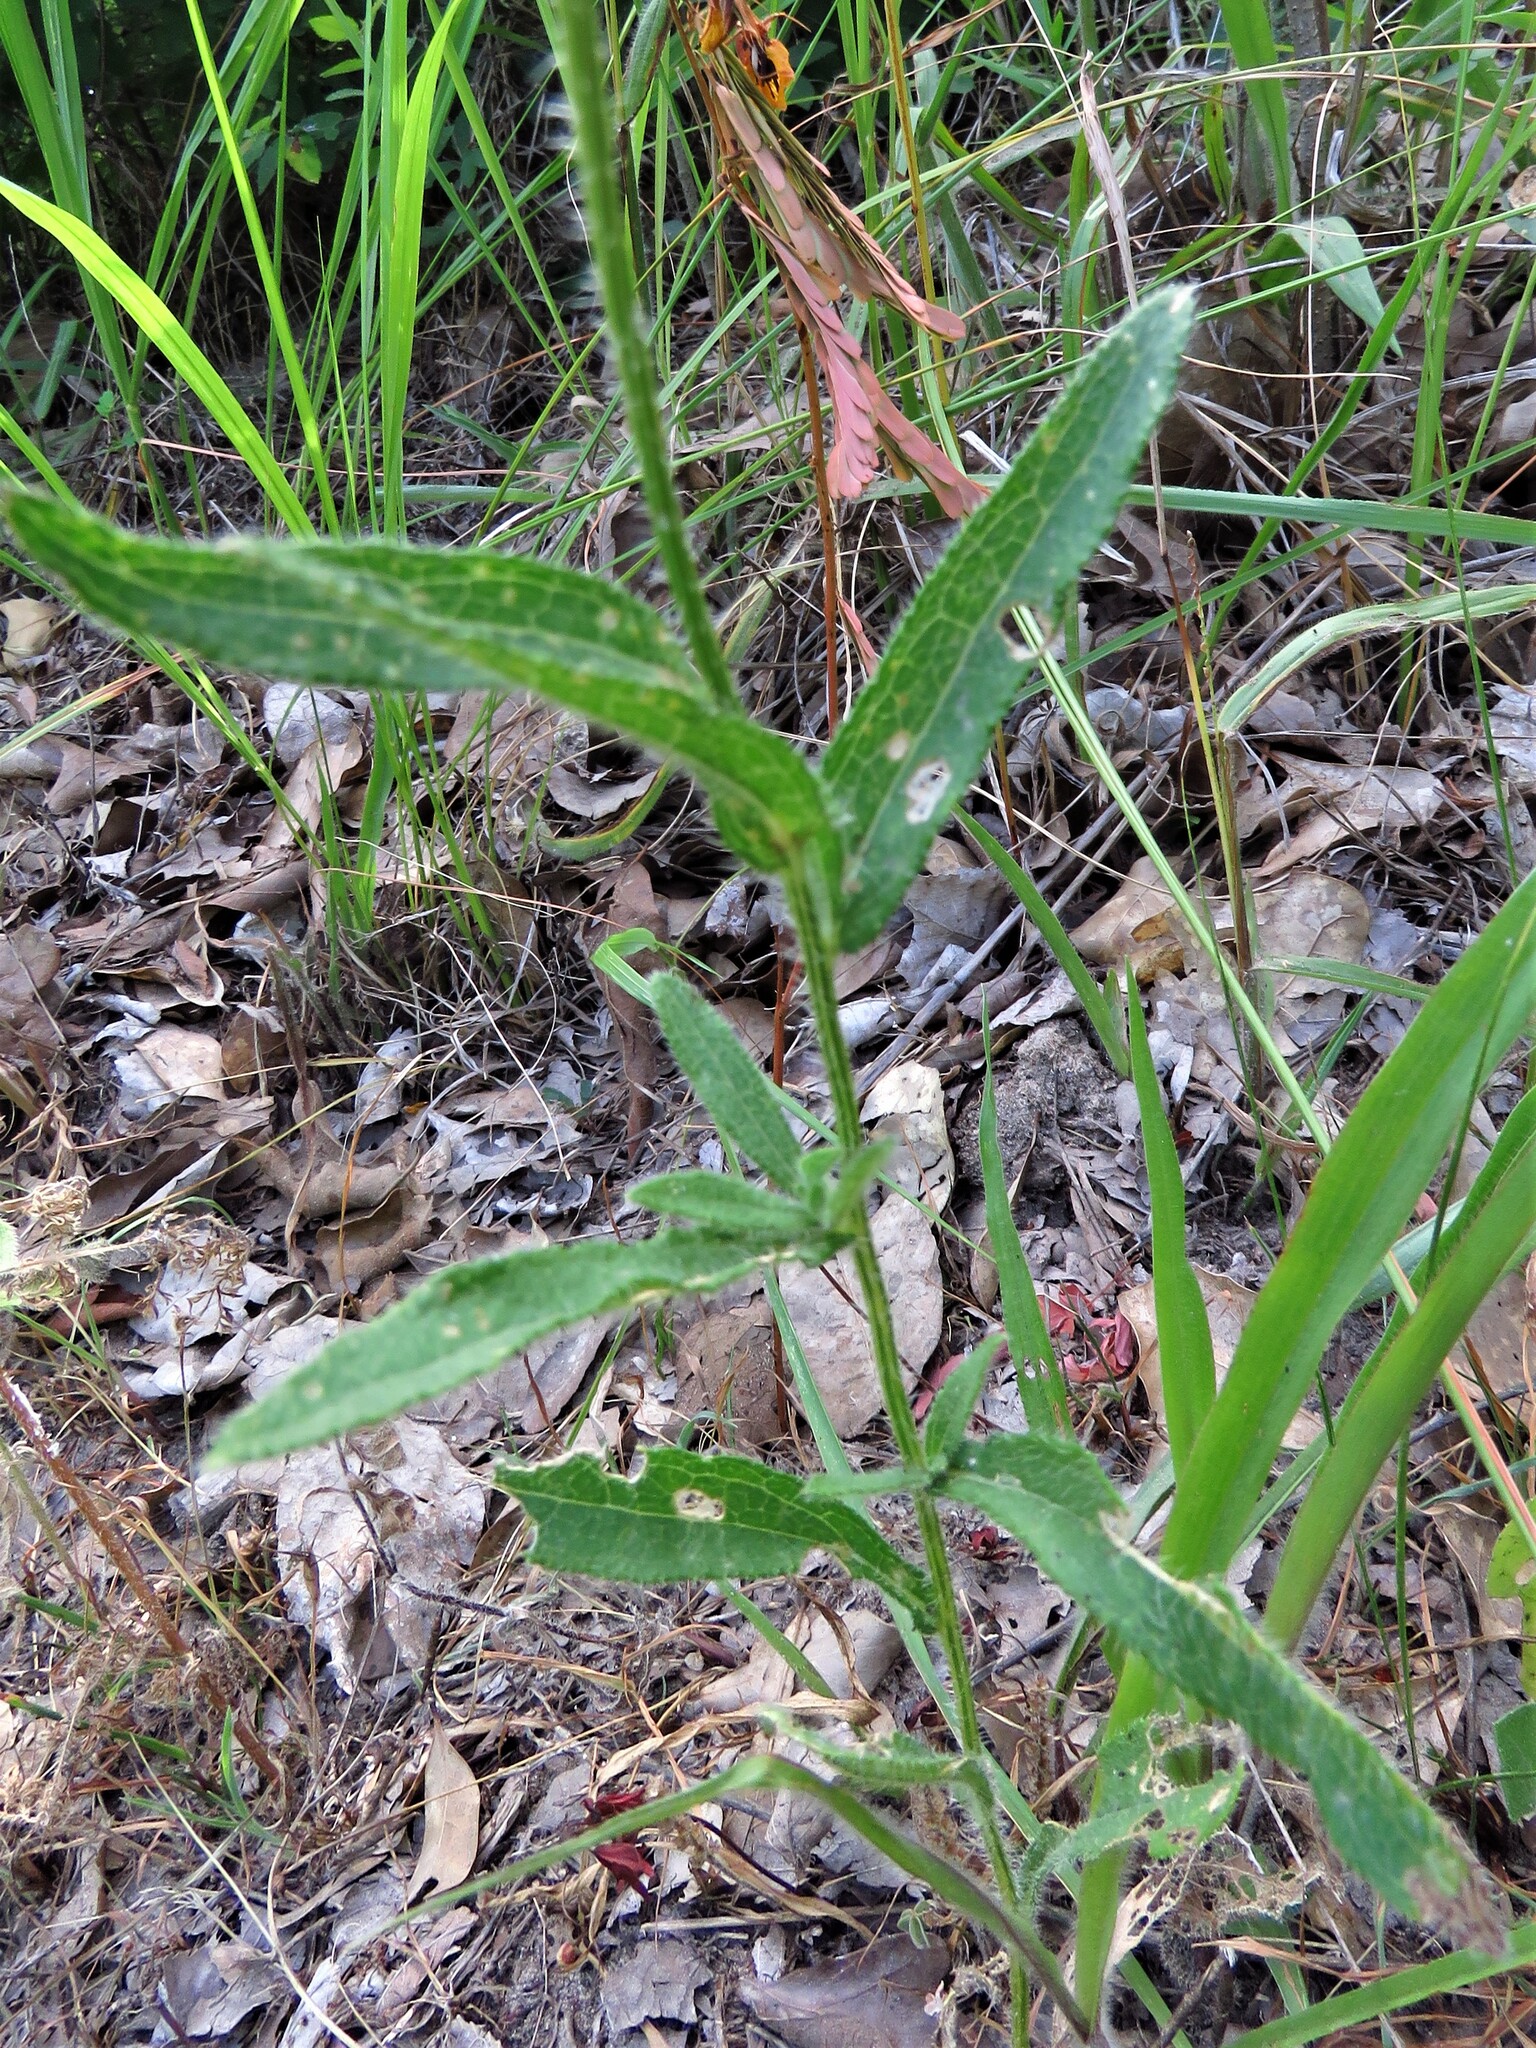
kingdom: Plantae
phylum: Tracheophyta
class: Magnoliopsida
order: Asterales
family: Asteraceae
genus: Rudbeckia
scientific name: Rudbeckia hirta
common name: Black-eyed-susan
